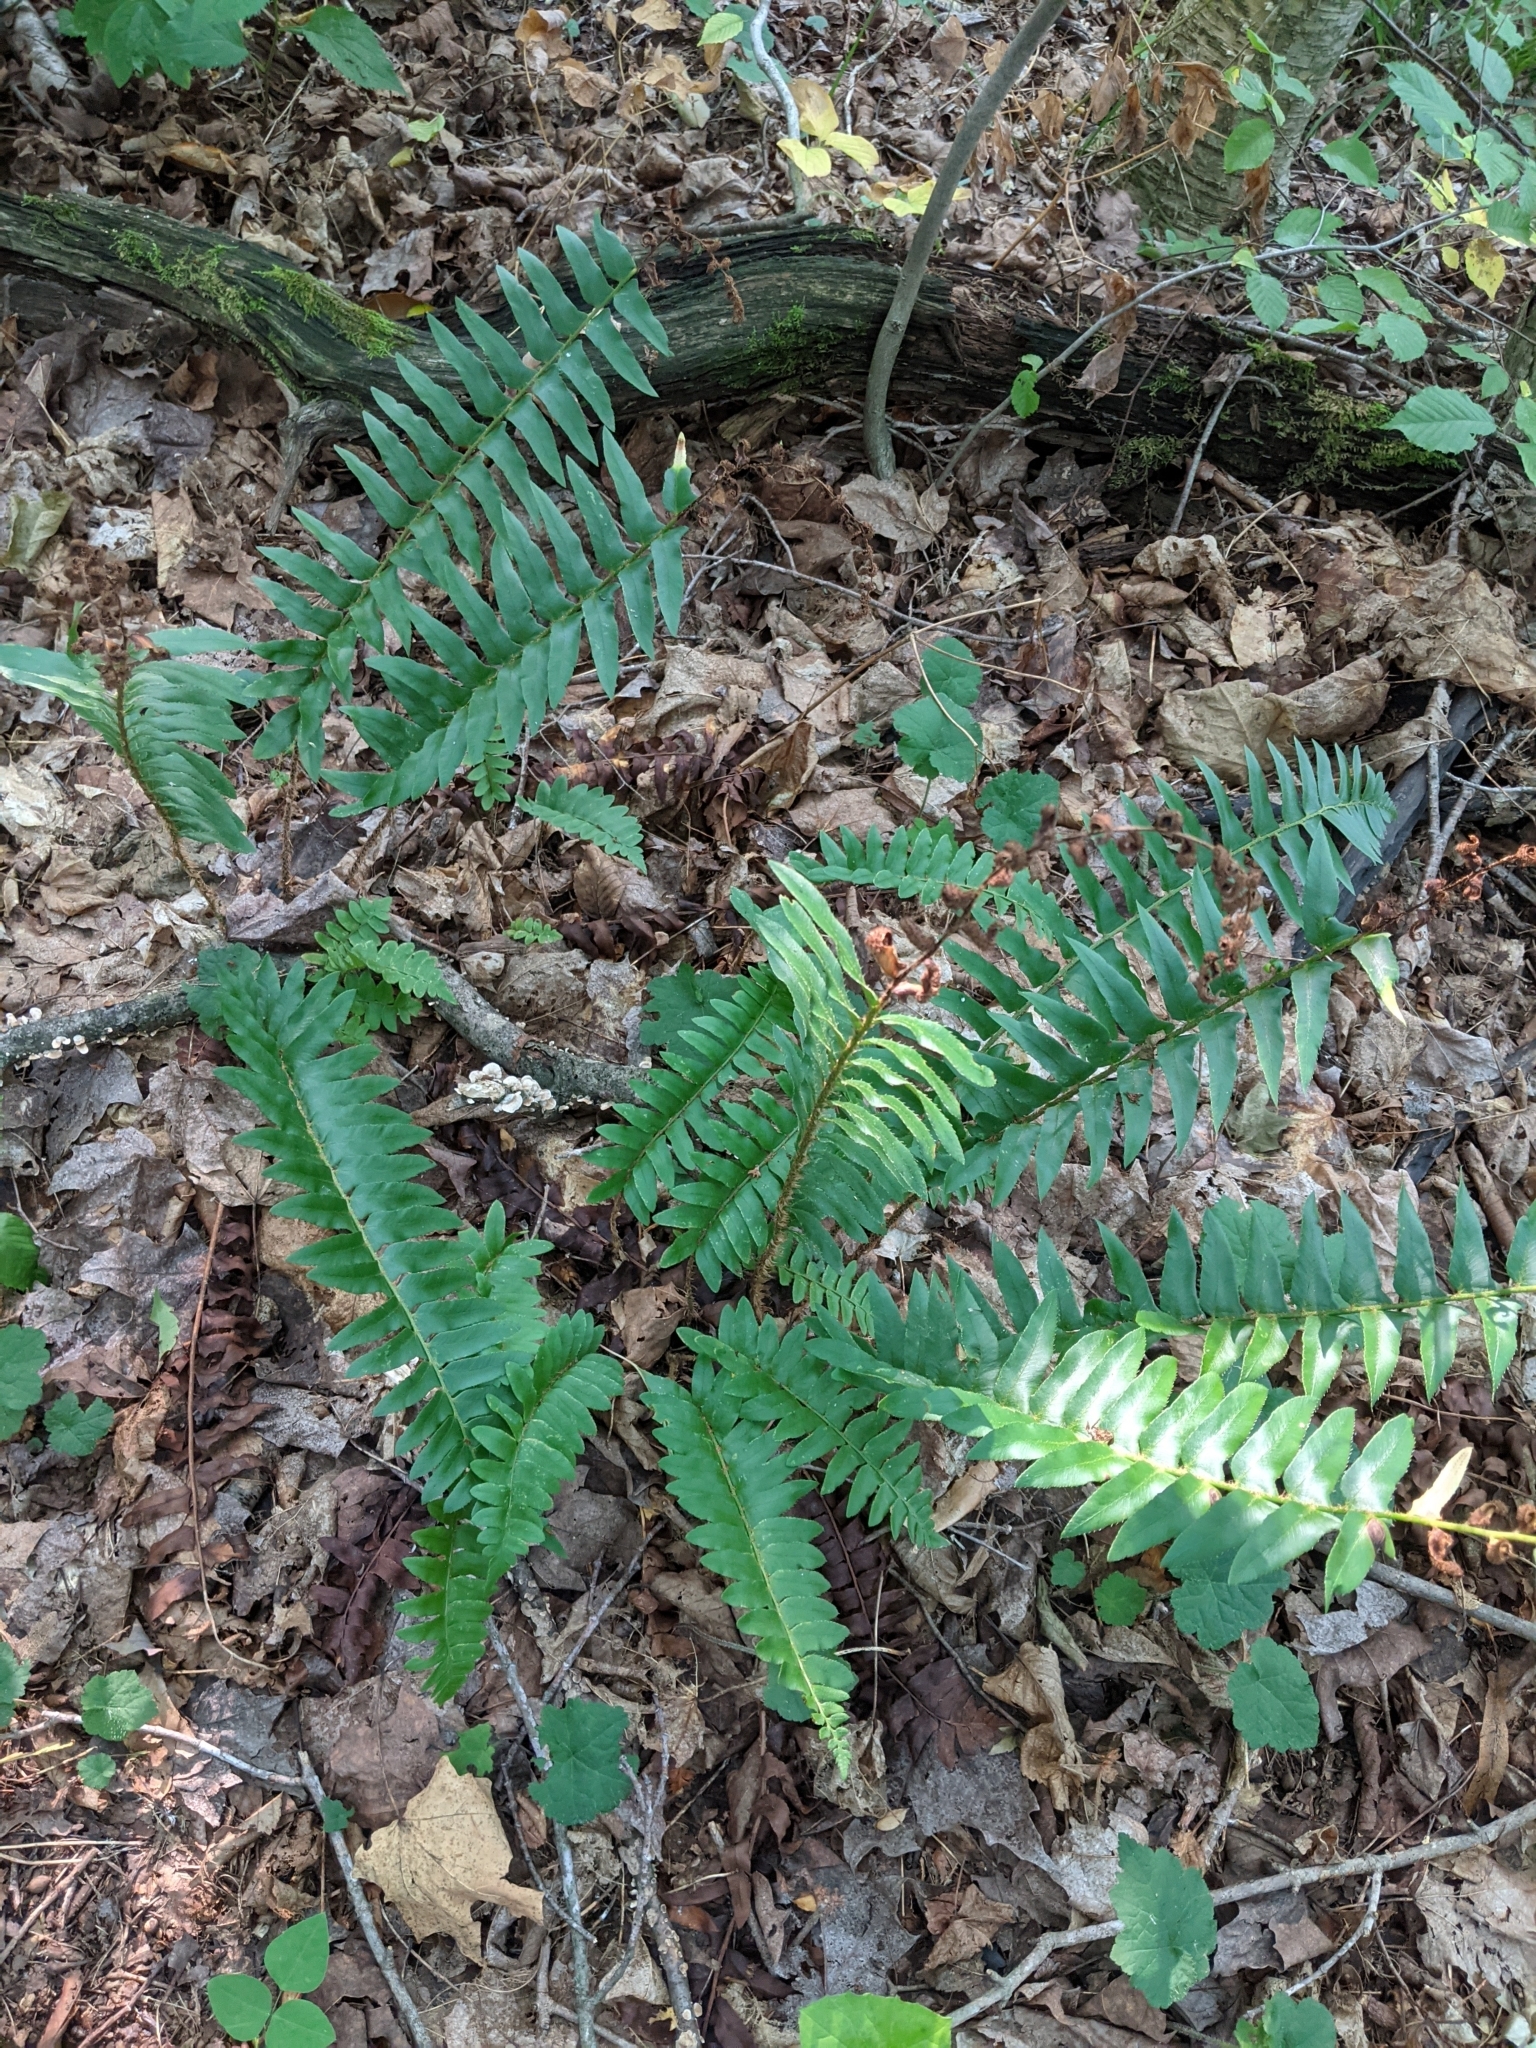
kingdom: Plantae
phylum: Tracheophyta
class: Polypodiopsida
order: Polypodiales
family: Dryopteridaceae
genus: Polystichum
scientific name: Polystichum acrostichoides
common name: Christmas fern
